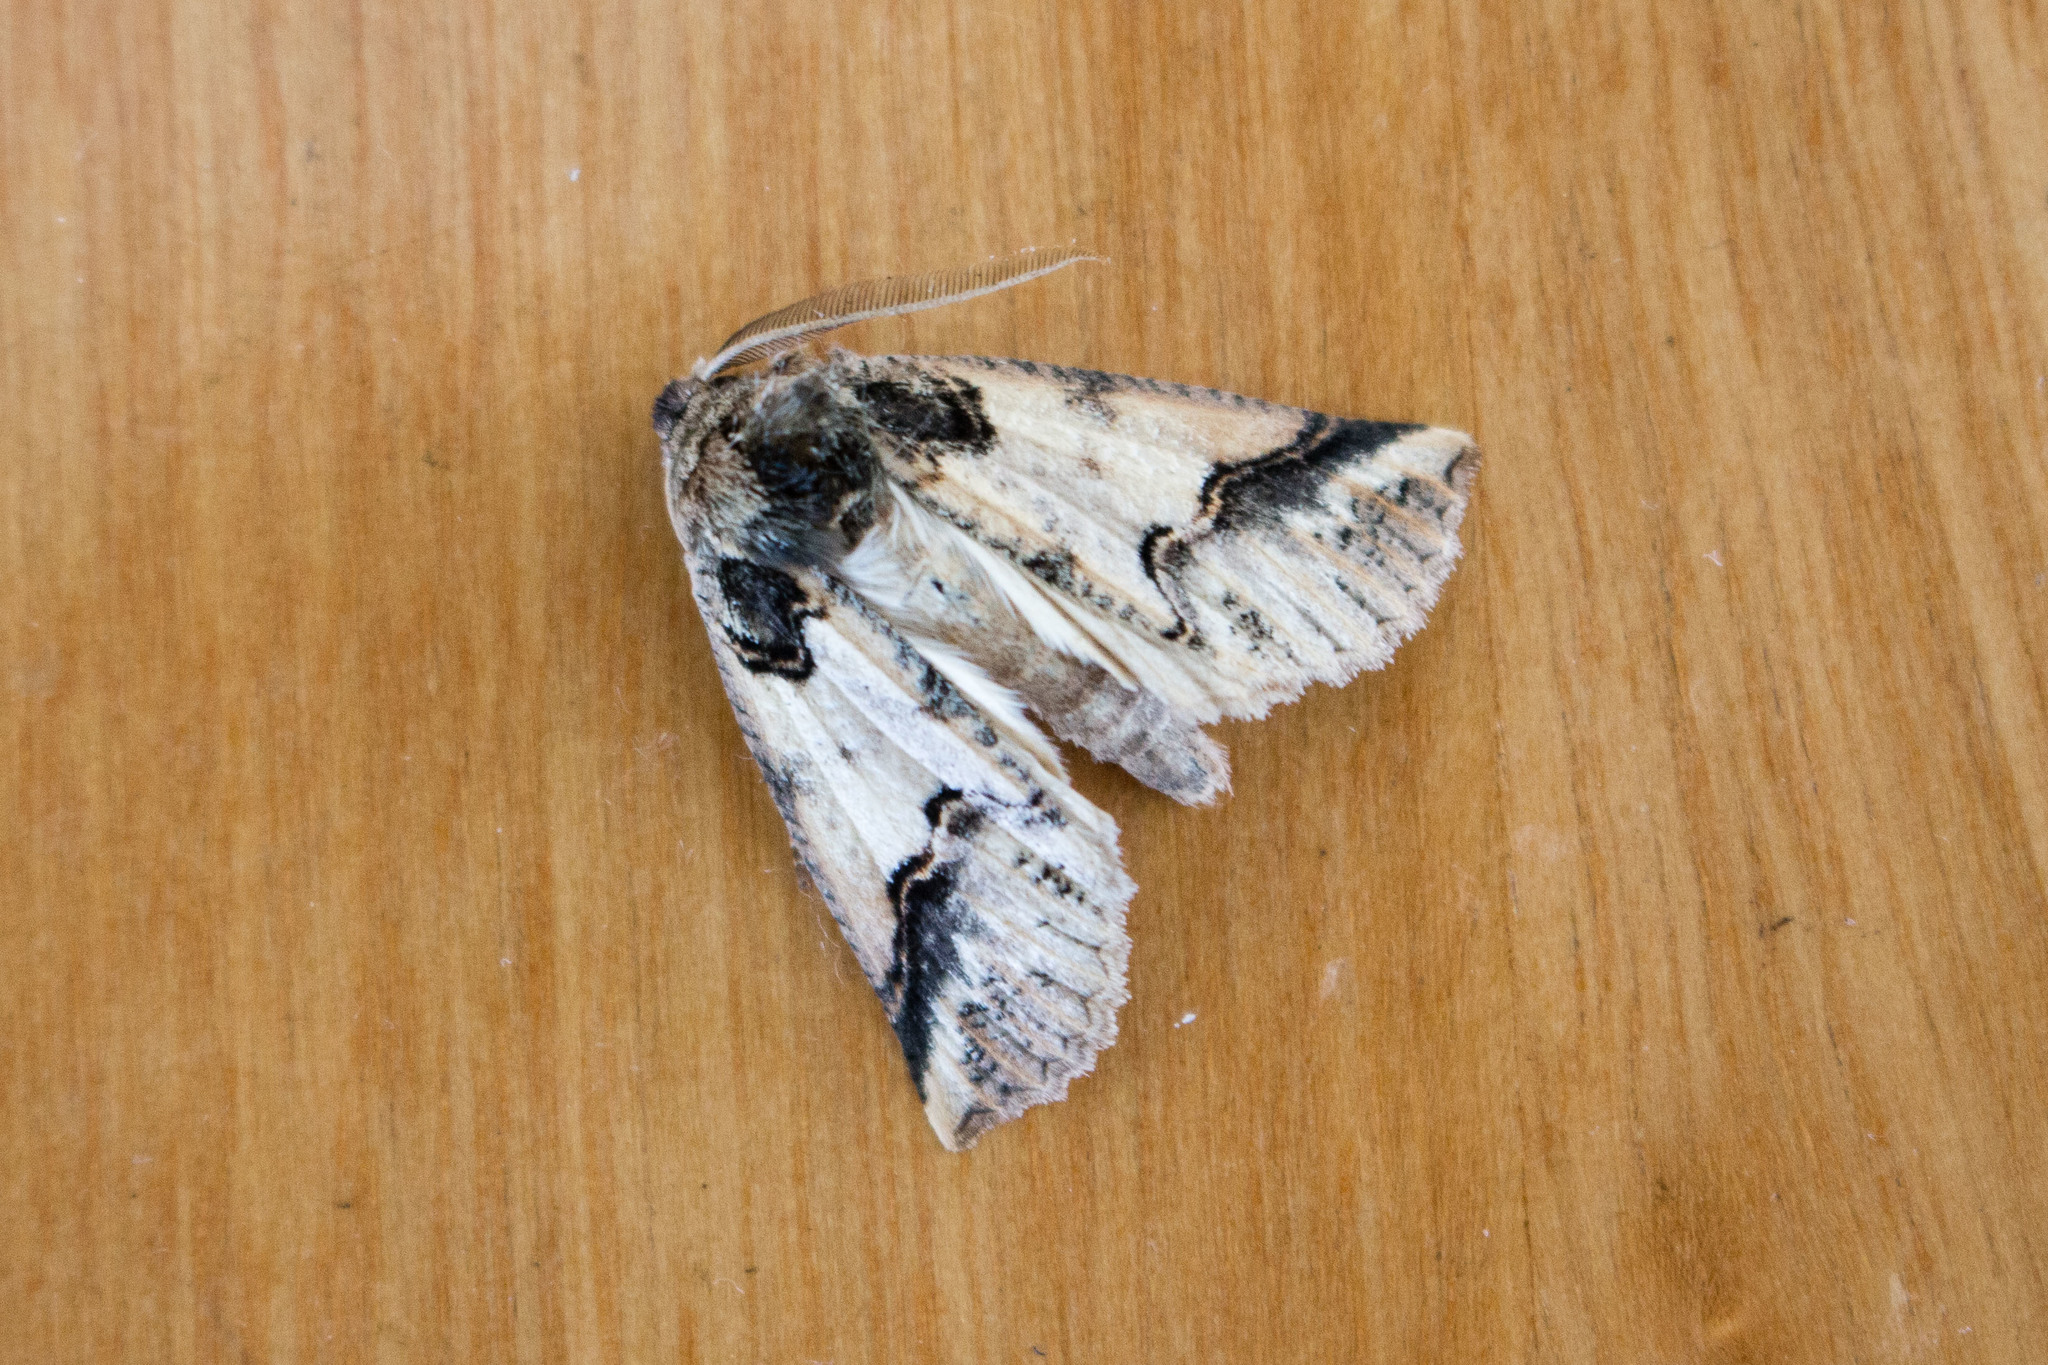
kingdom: Animalia
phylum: Arthropoda
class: Insecta
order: Lepidoptera
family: Geometridae
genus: Declana
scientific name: Declana
